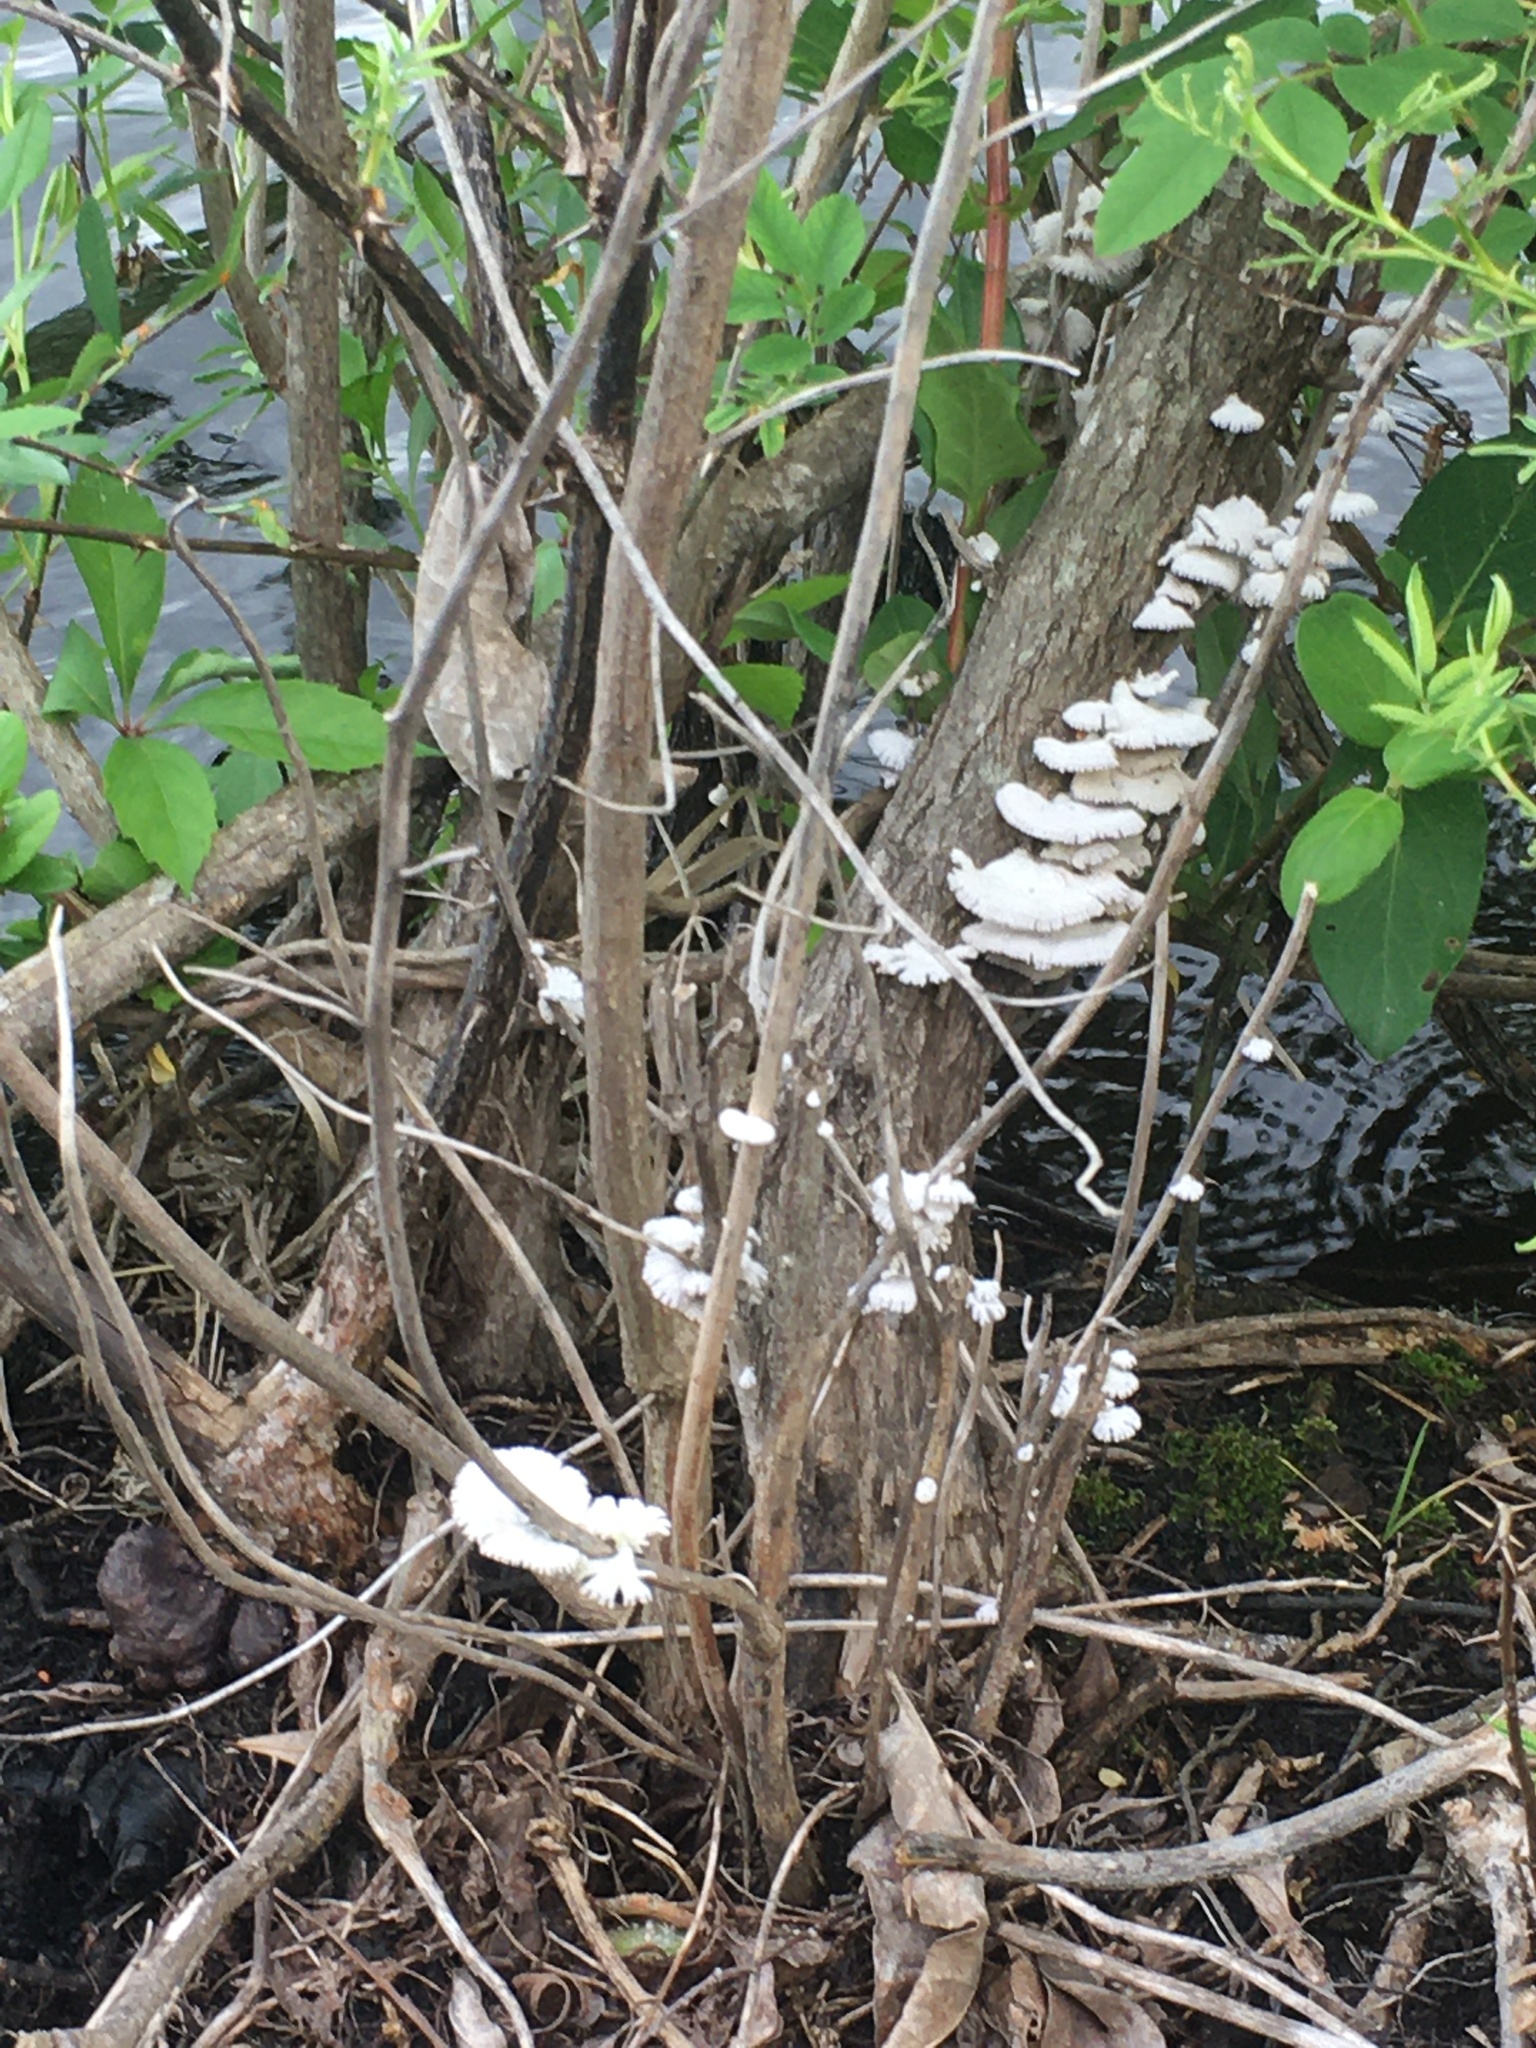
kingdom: Fungi
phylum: Basidiomycota
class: Agaricomycetes
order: Agaricales
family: Schizophyllaceae
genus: Schizophyllum
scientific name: Schizophyllum commune
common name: Common porecrust
